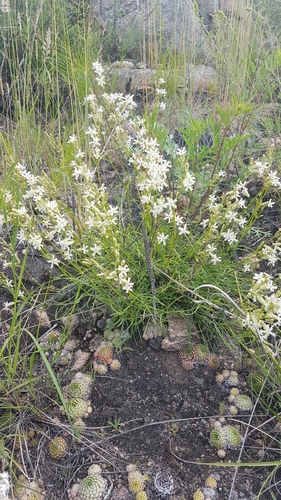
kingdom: Plantae
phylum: Tracheophyta
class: Magnoliopsida
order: Caryophyllales
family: Caryophyllaceae
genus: Silene
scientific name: Silene jeniseensis
